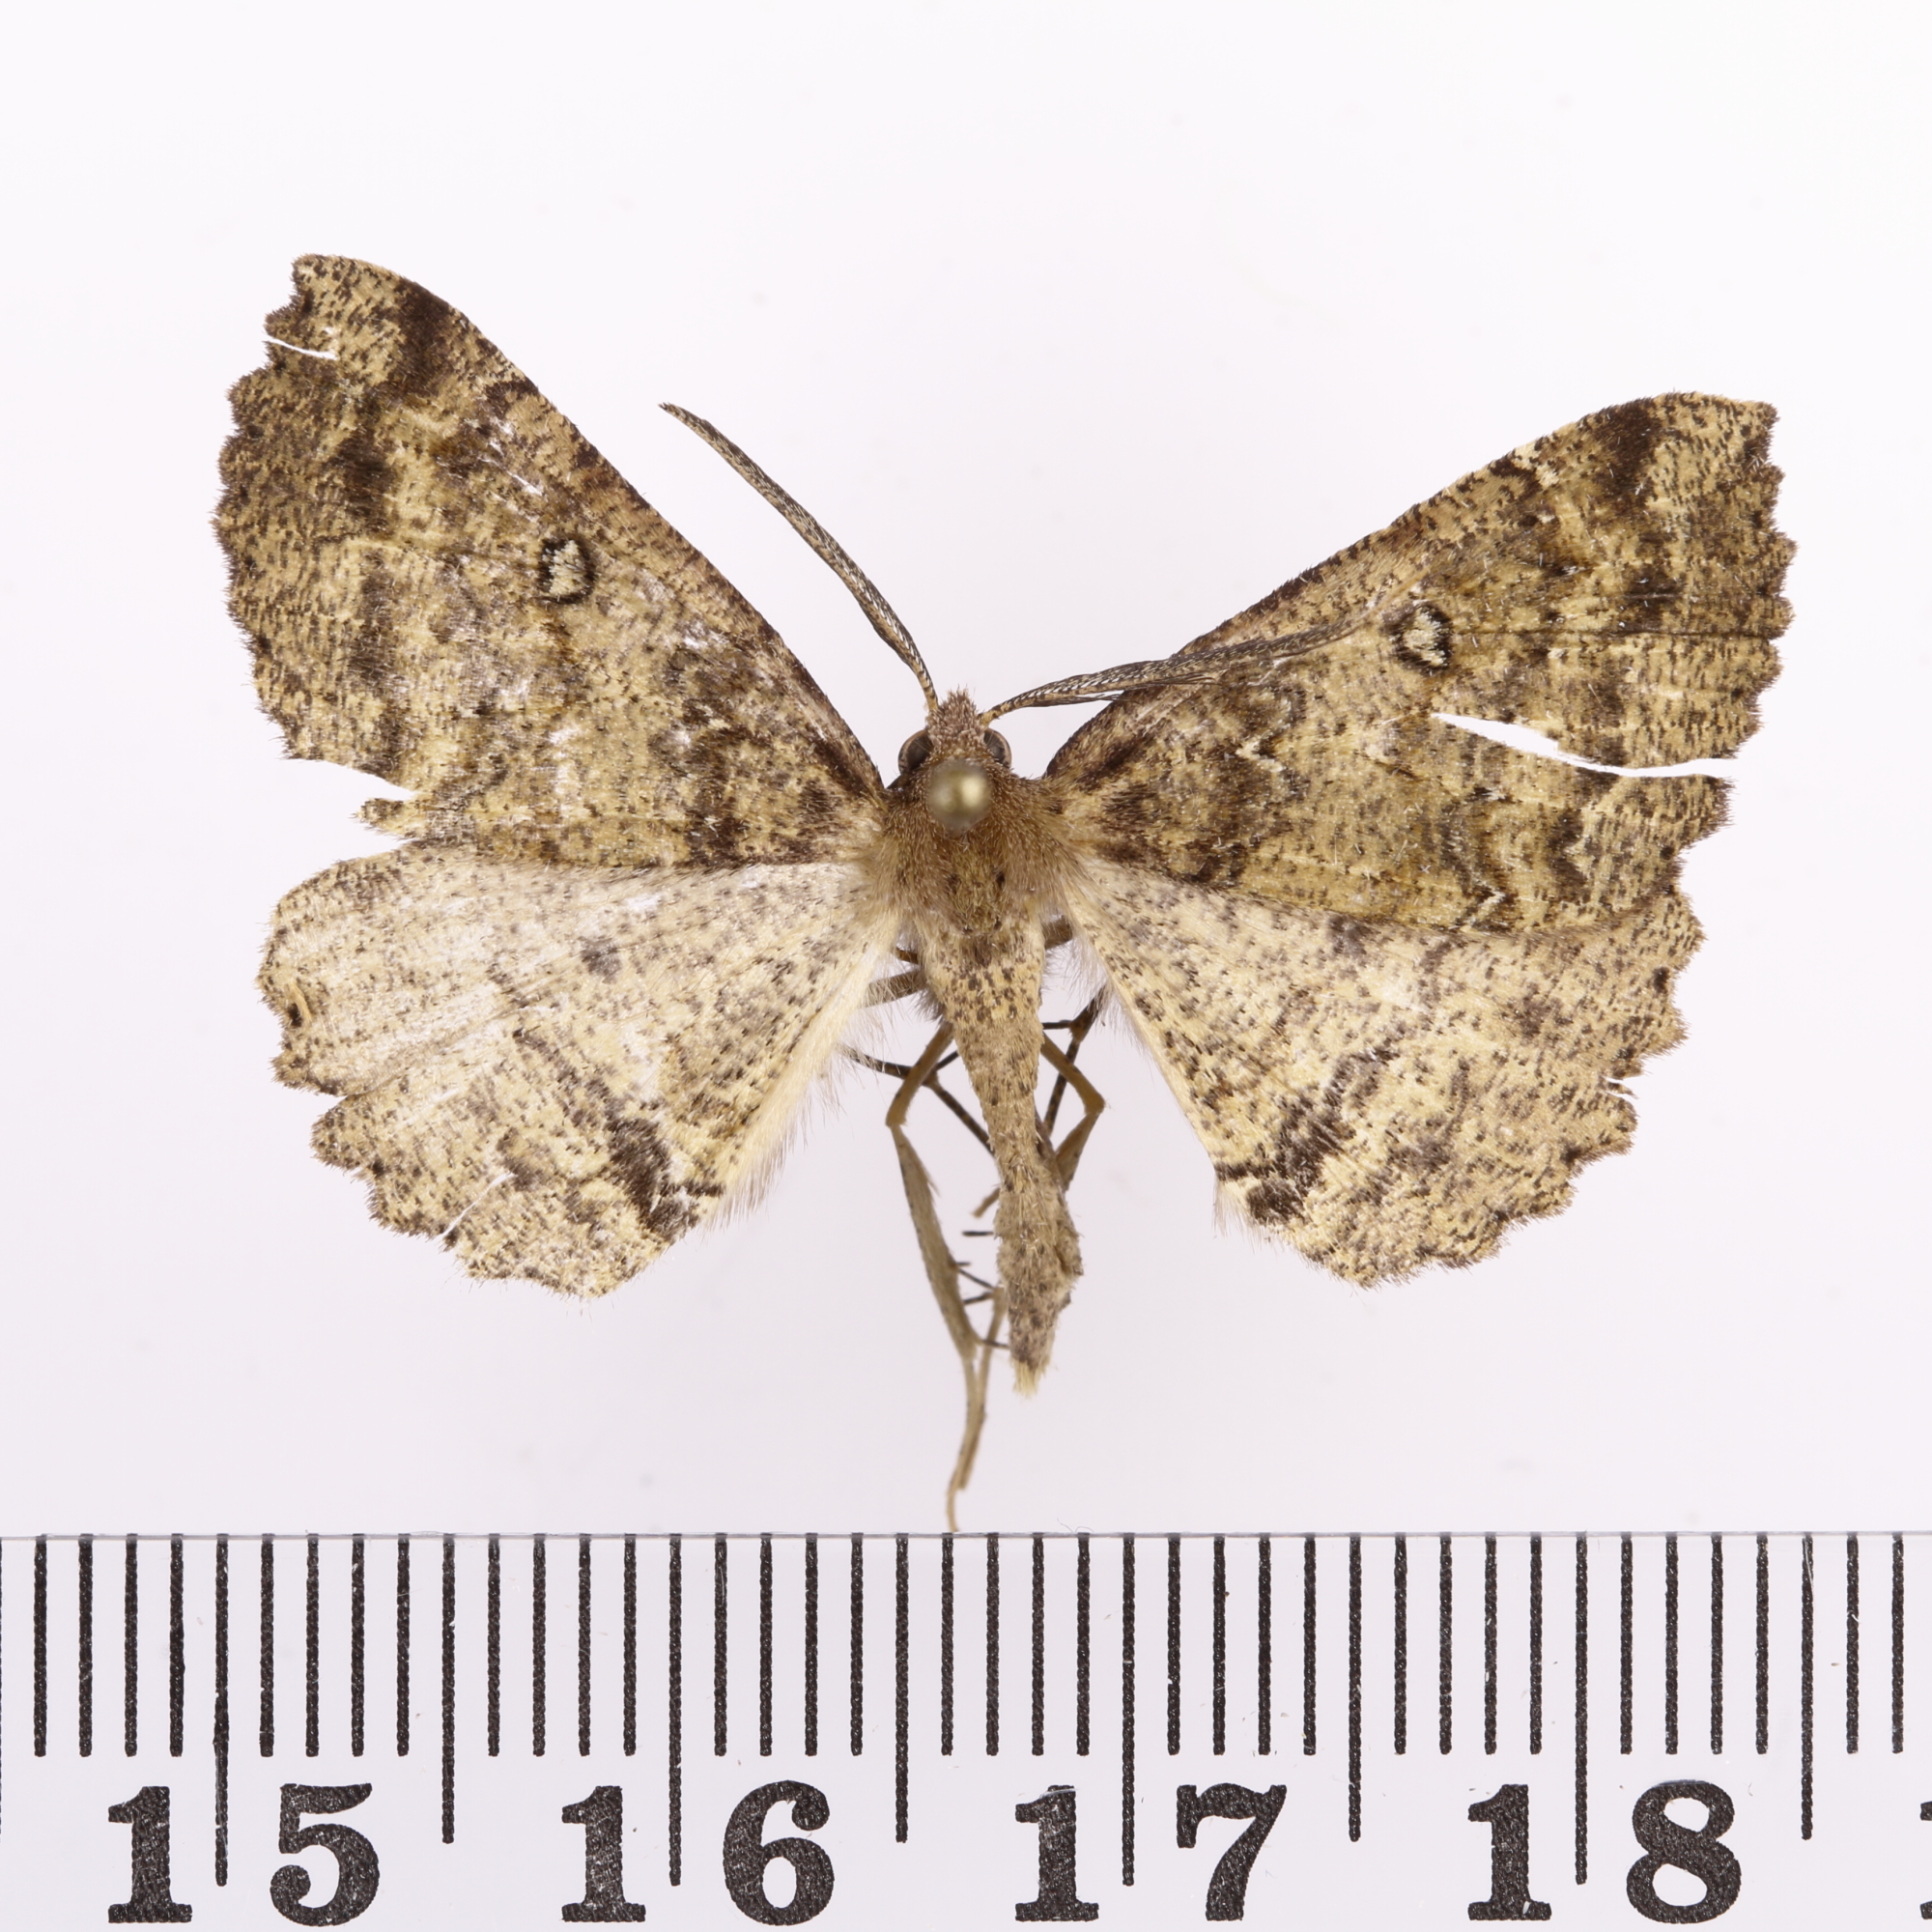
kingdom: Animalia
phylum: Arthropoda
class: Insecta
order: Lepidoptera
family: Geometridae
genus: Cleora
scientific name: Cleora scriptaria
